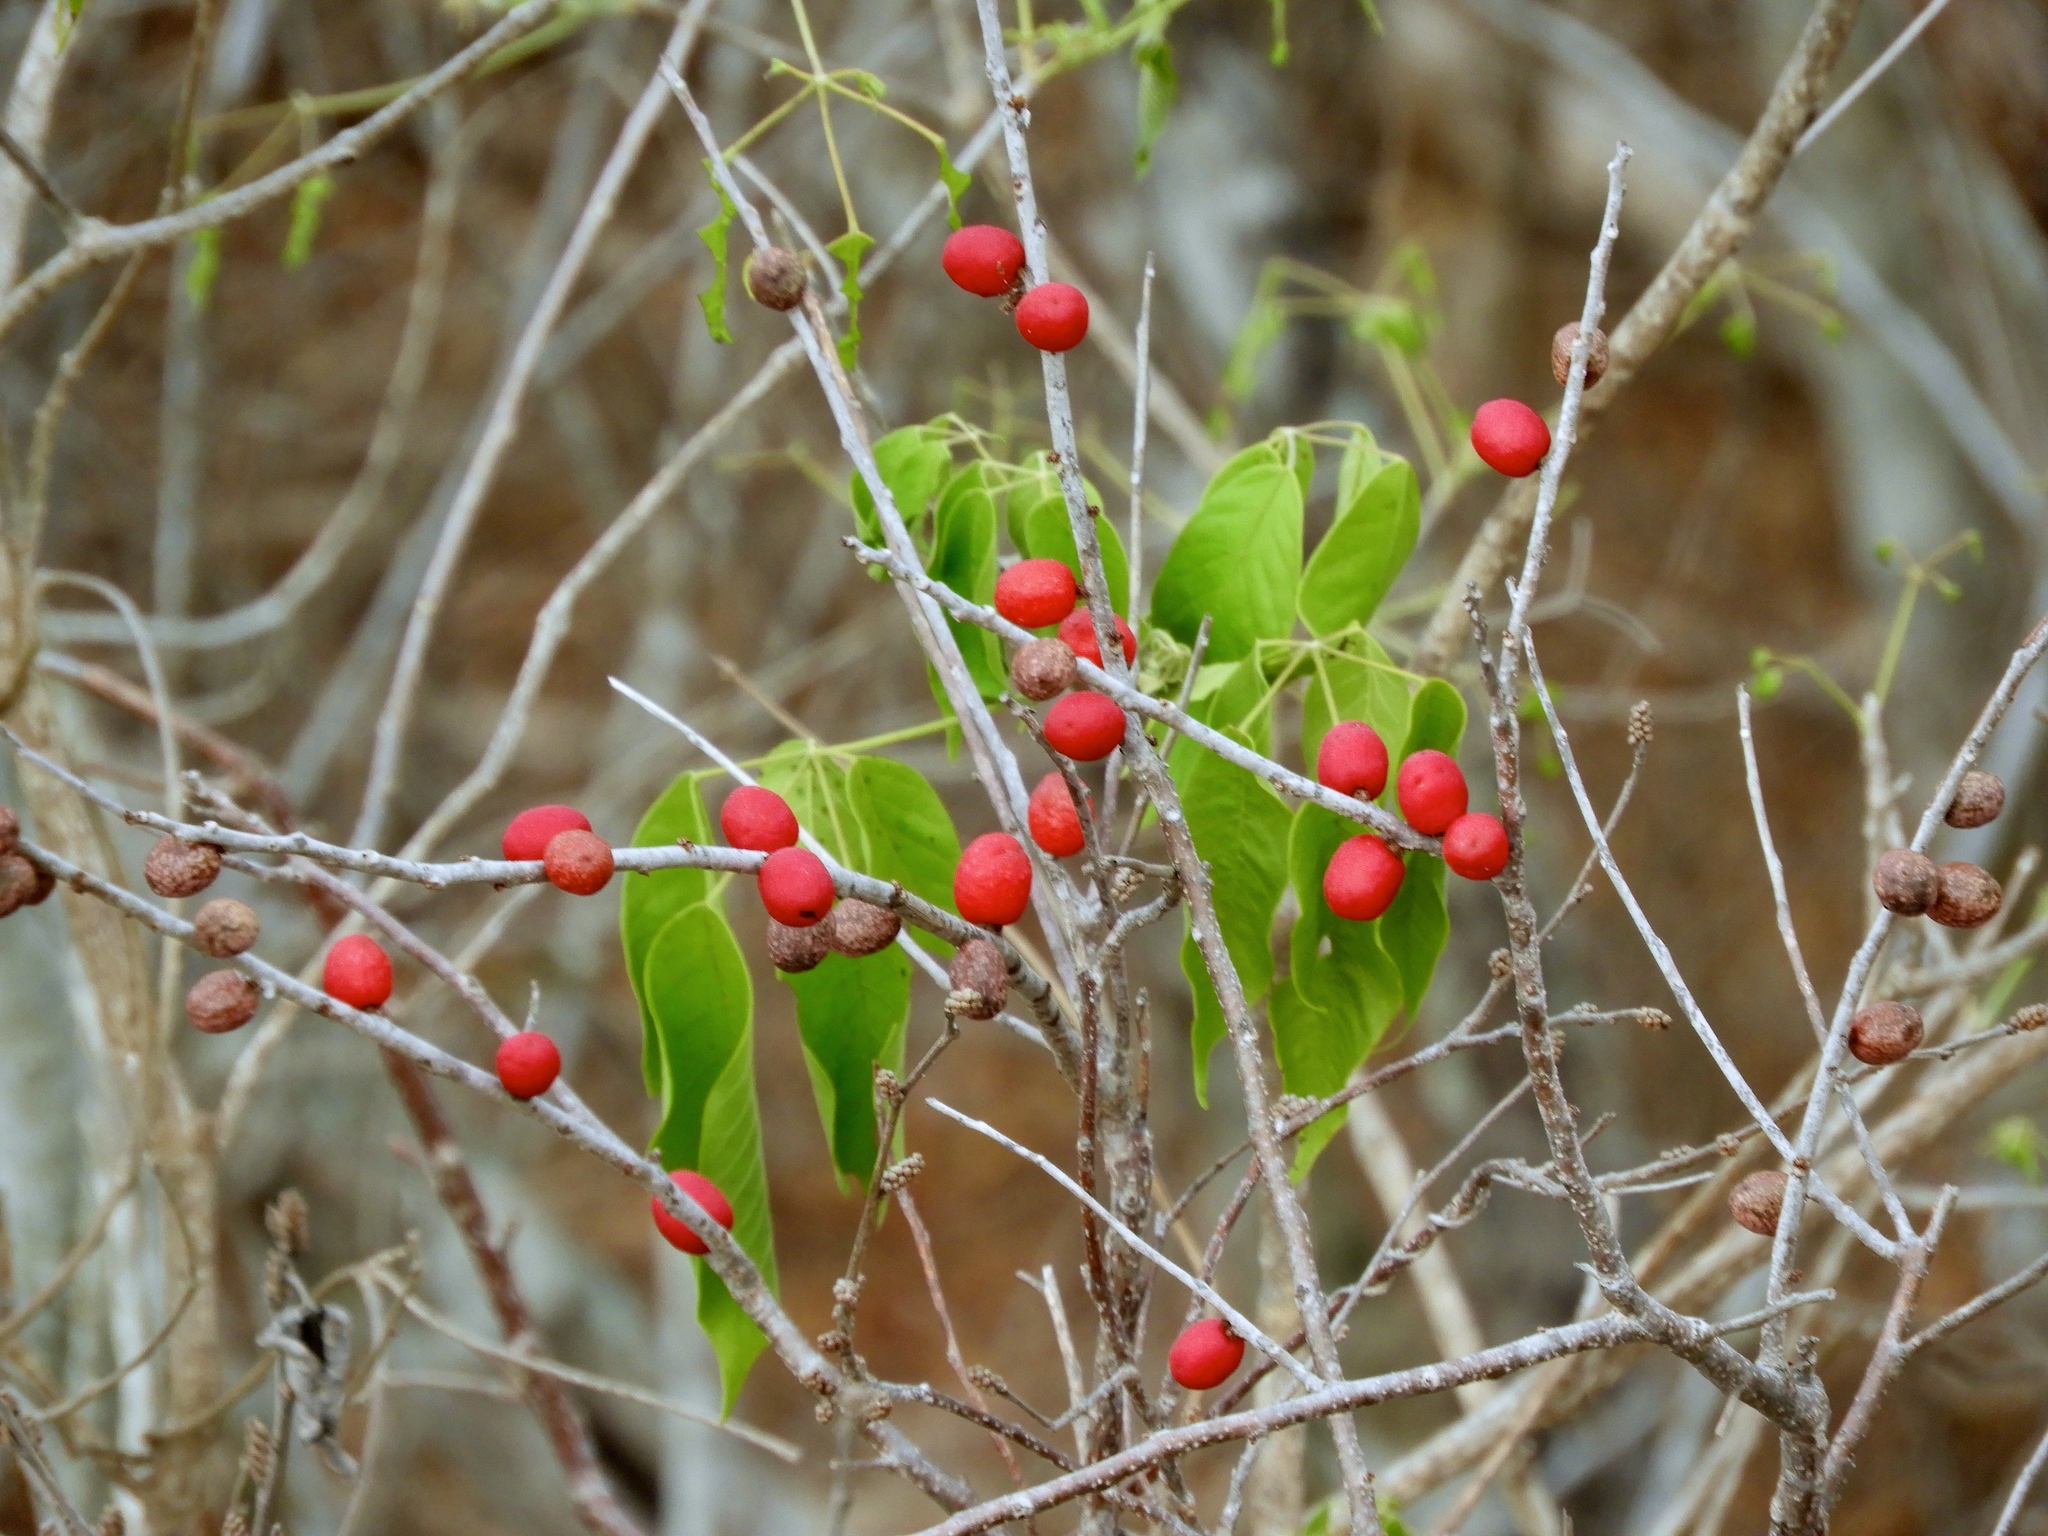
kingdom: Plantae
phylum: Tracheophyta
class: Magnoliopsida
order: Sapindales
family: Anacardiaceae
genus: Spondias
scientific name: Spondias purpurea
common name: Purple mombin
